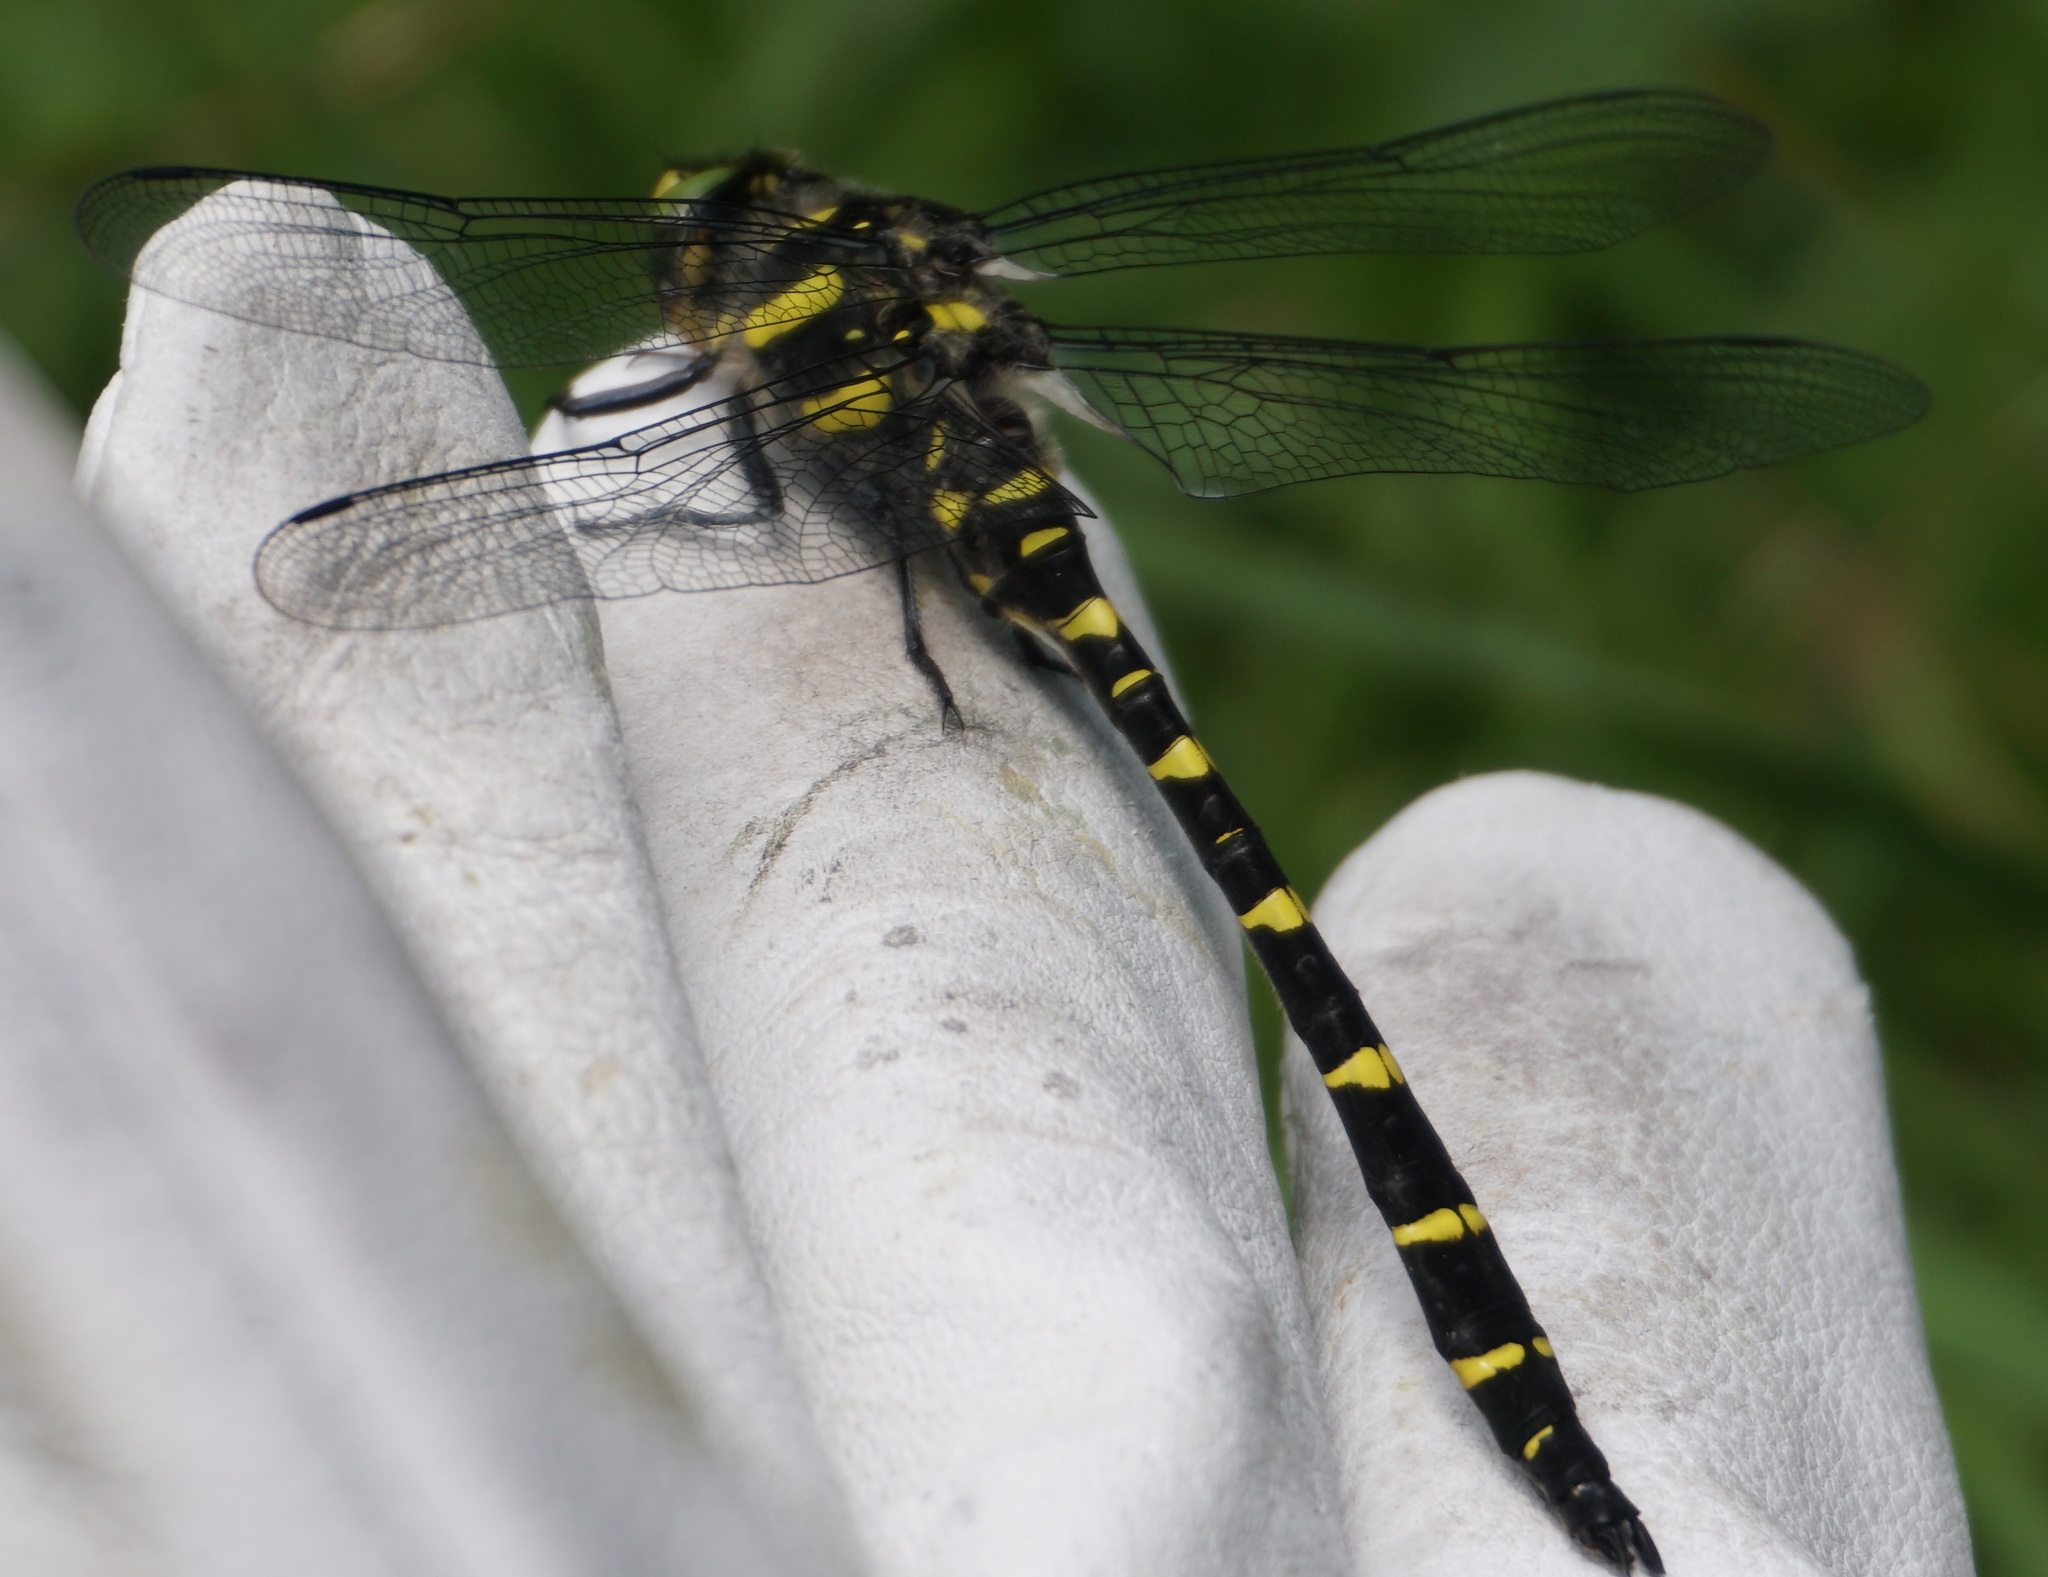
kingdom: Animalia
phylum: Arthropoda
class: Insecta
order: Odonata
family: Cordulegastridae
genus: Cordulegaster
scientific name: Cordulegaster bidentata
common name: Sombre goldenring
